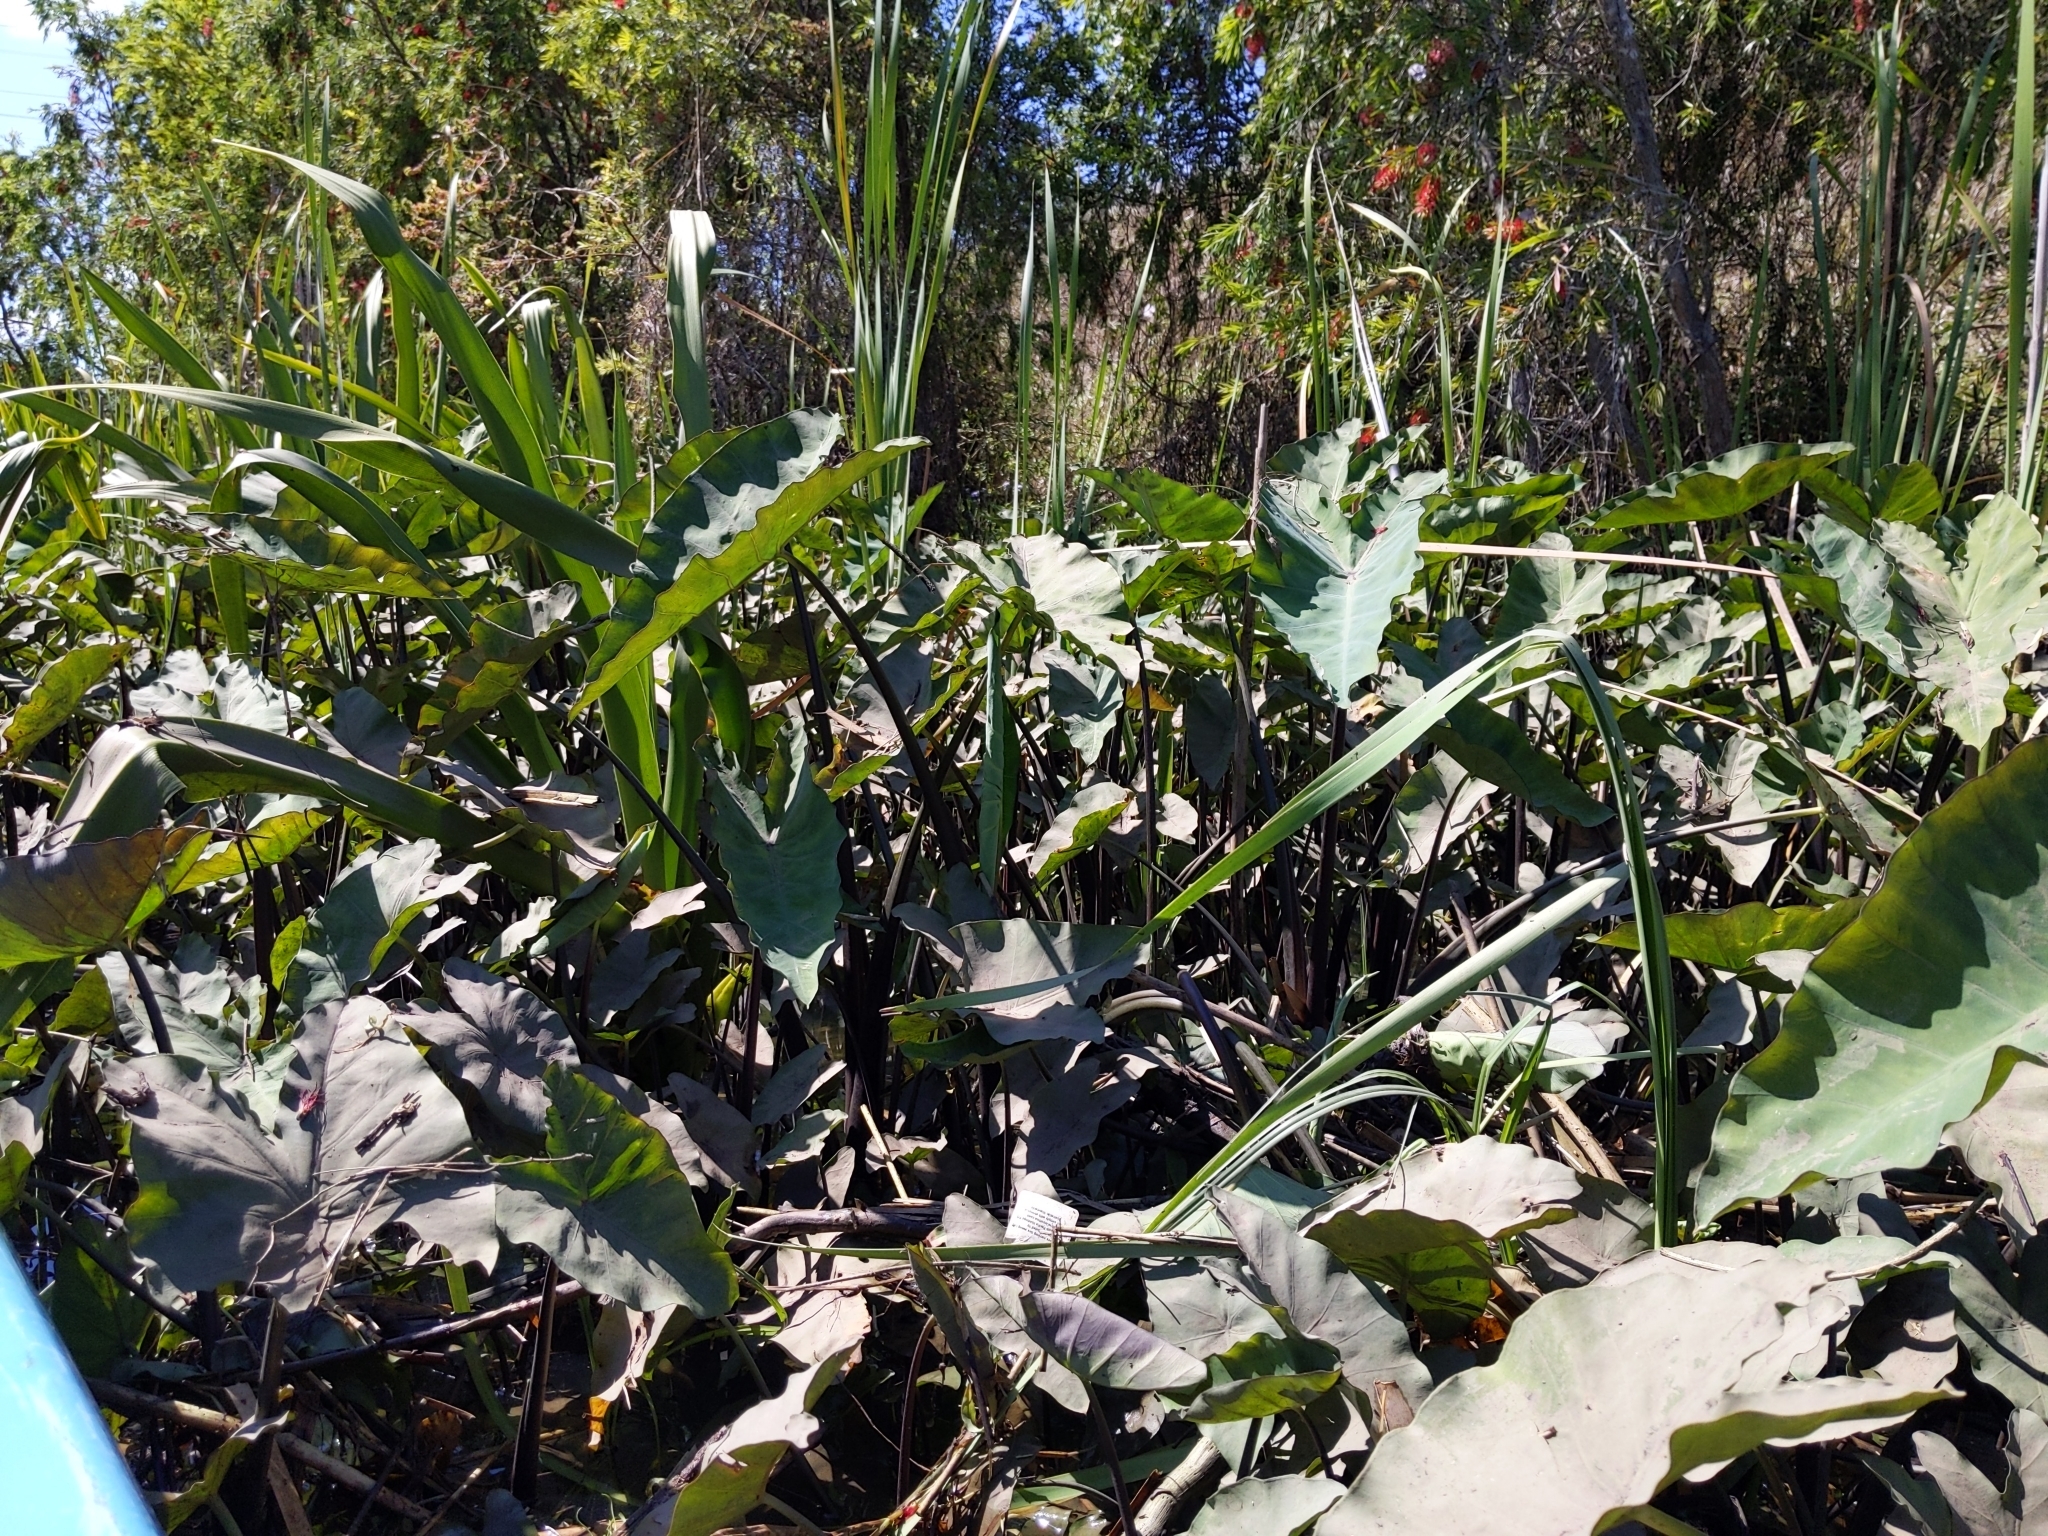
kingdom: Plantae
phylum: Tracheophyta
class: Liliopsida
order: Alismatales
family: Araceae
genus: Colocasia
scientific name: Colocasia esculenta
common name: Taro
